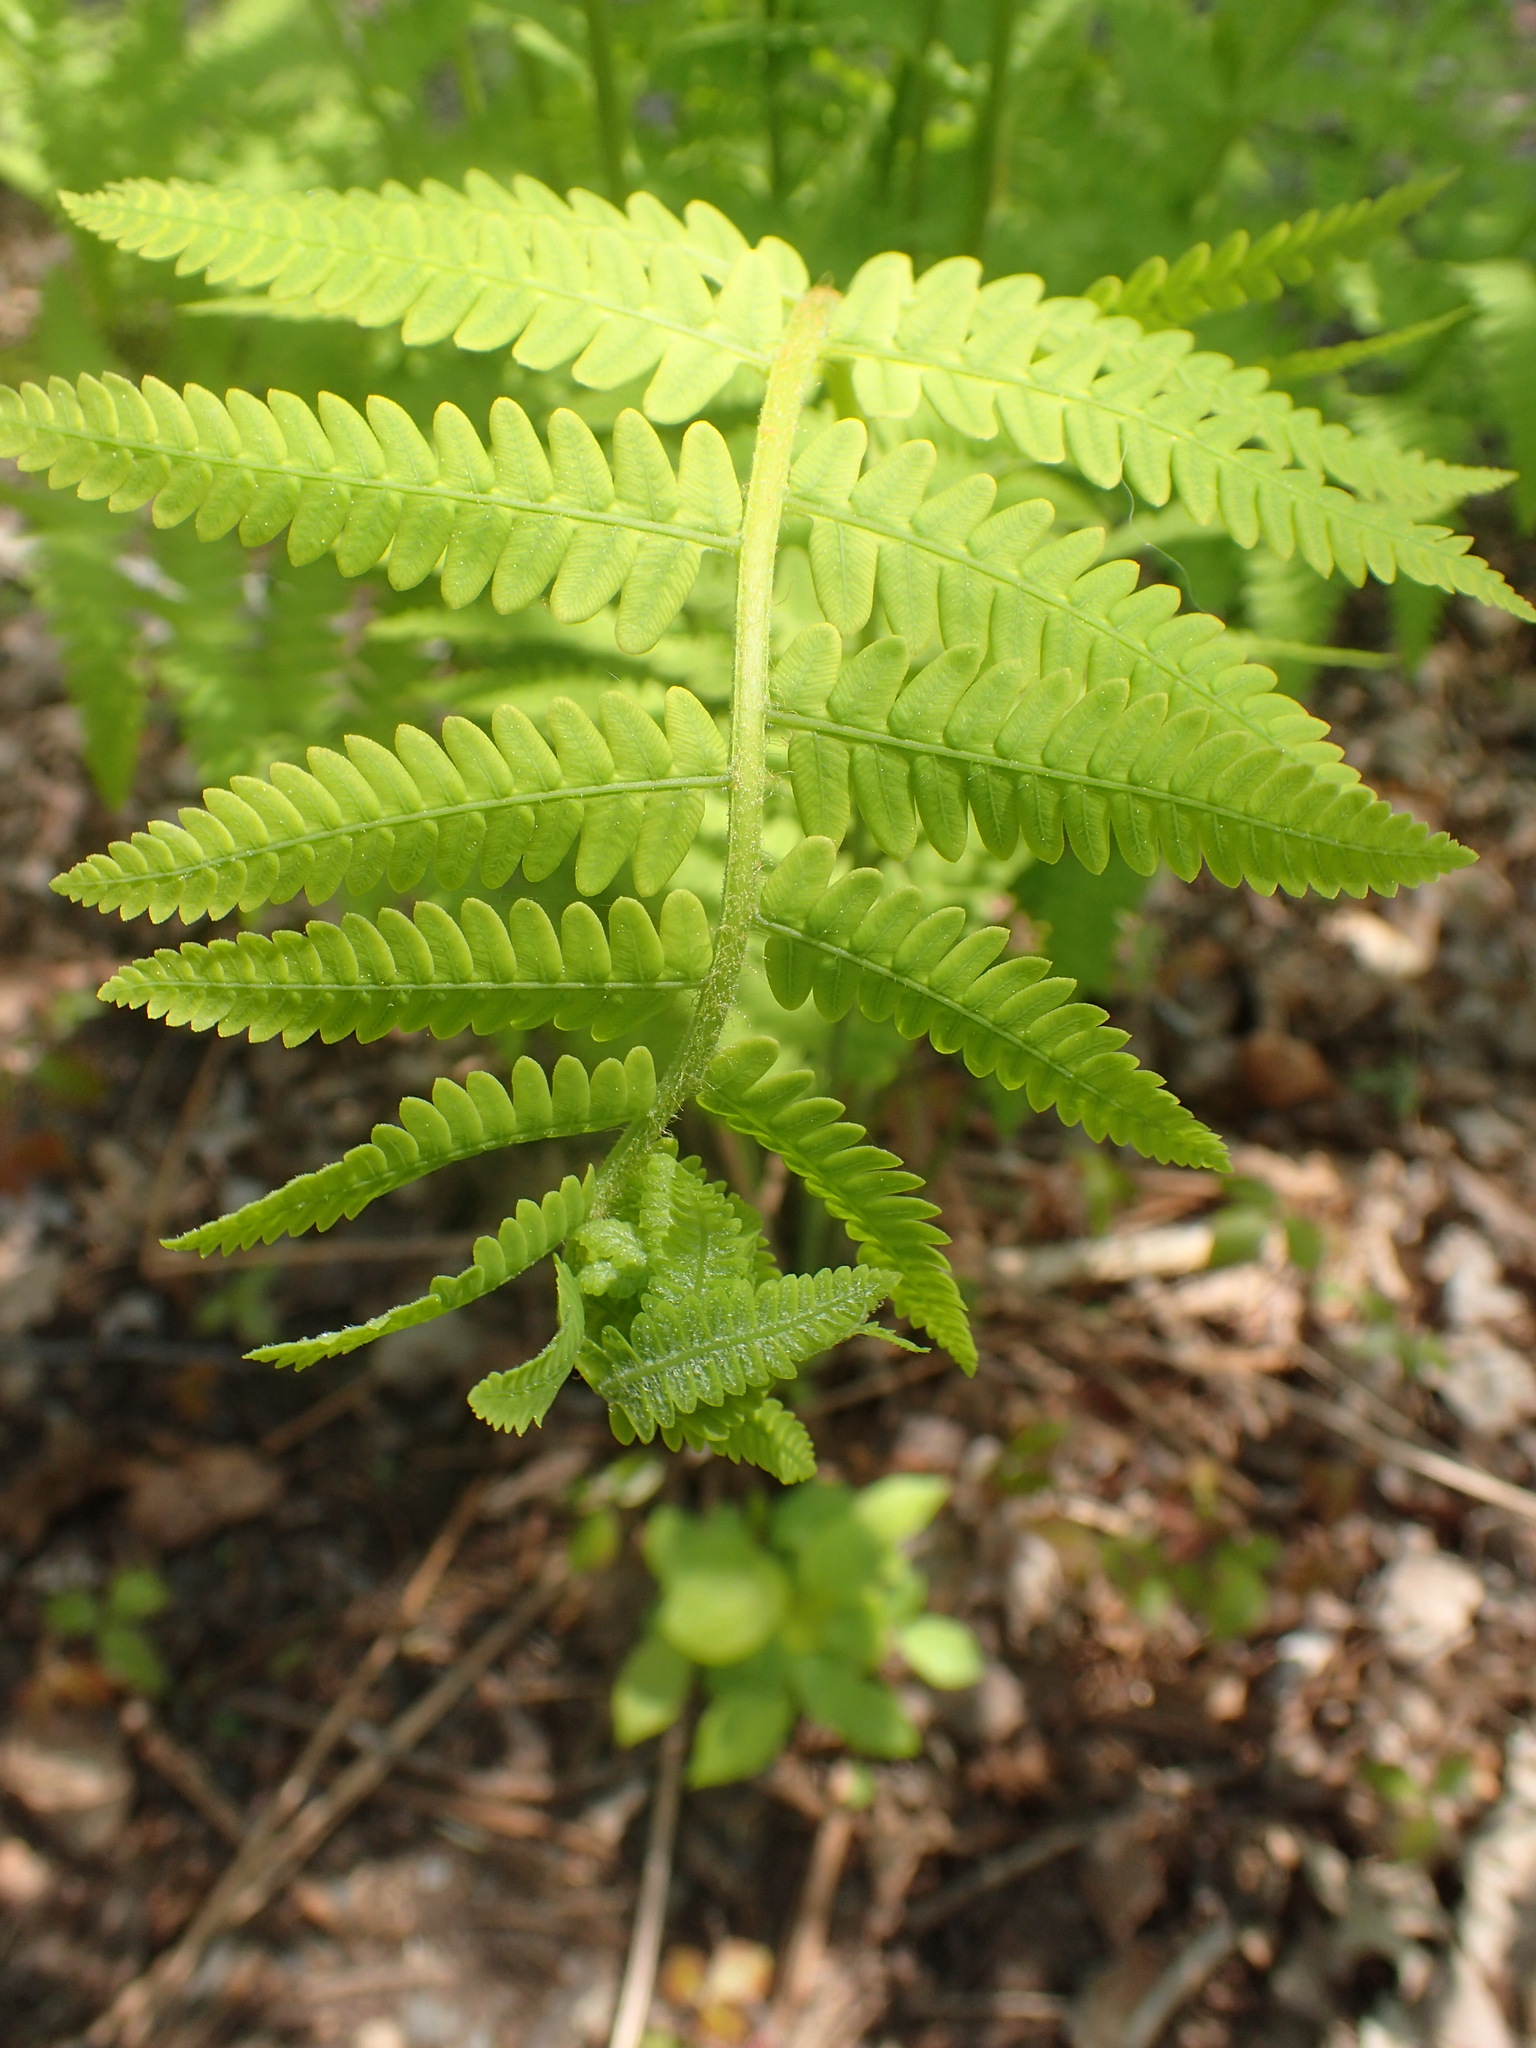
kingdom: Plantae
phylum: Tracheophyta
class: Polypodiopsida
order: Osmundales
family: Osmundaceae
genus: Claytosmunda
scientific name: Claytosmunda claytoniana
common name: Clayton's fern
